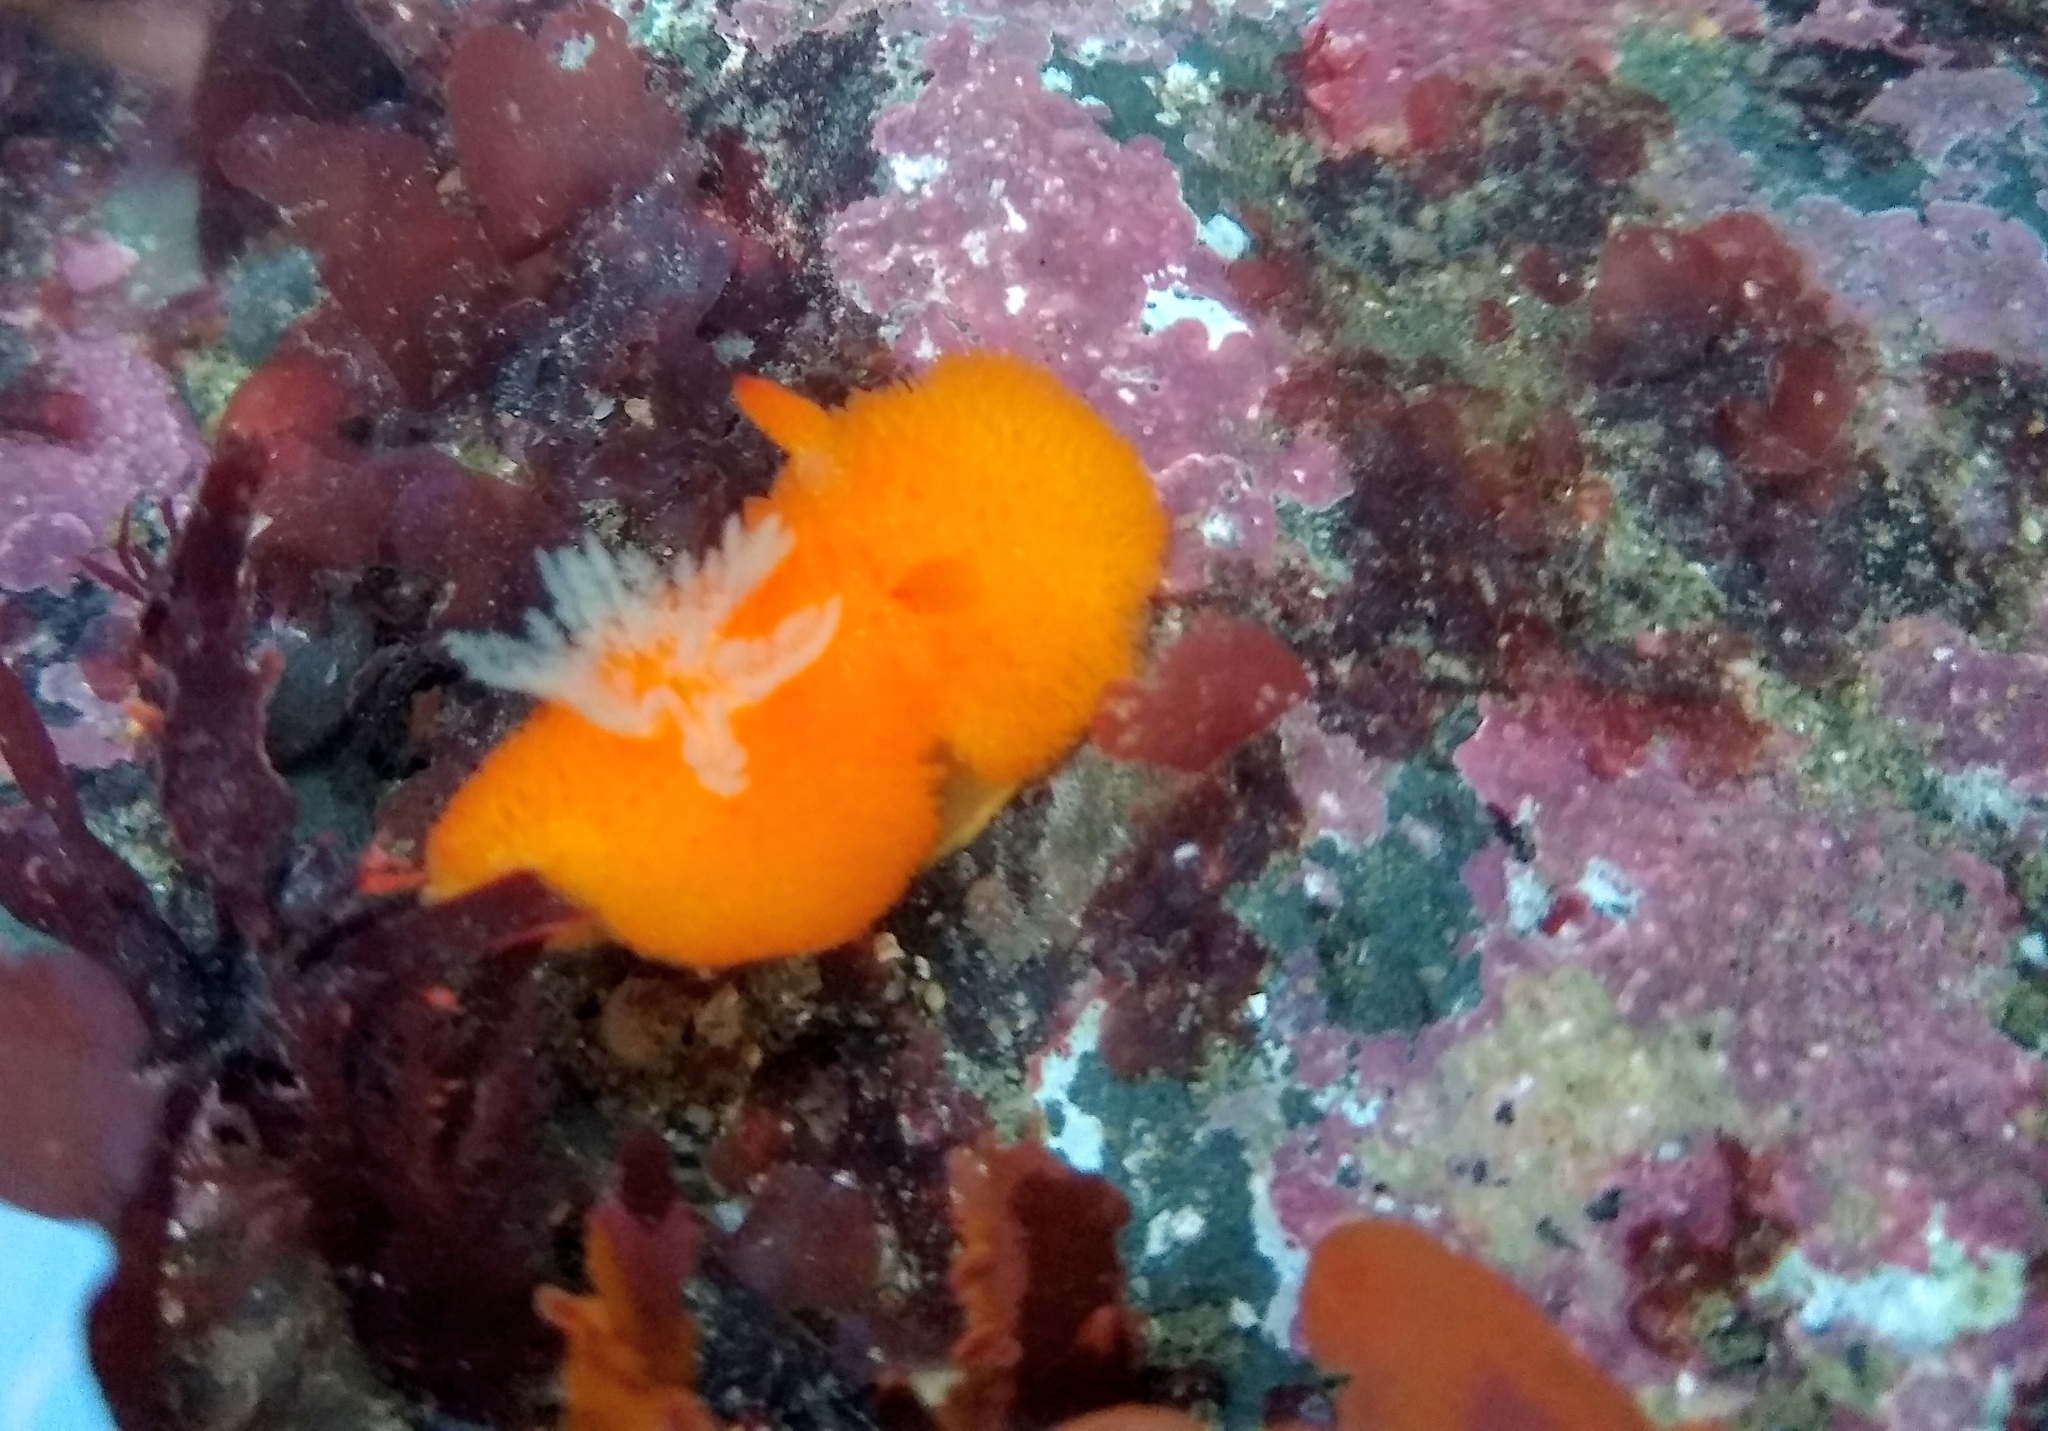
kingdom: Animalia
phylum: Mollusca
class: Gastropoda
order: Nudibranchia
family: Onchidorididae
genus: Acanthodoris
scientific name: Acanthodoris lutea
